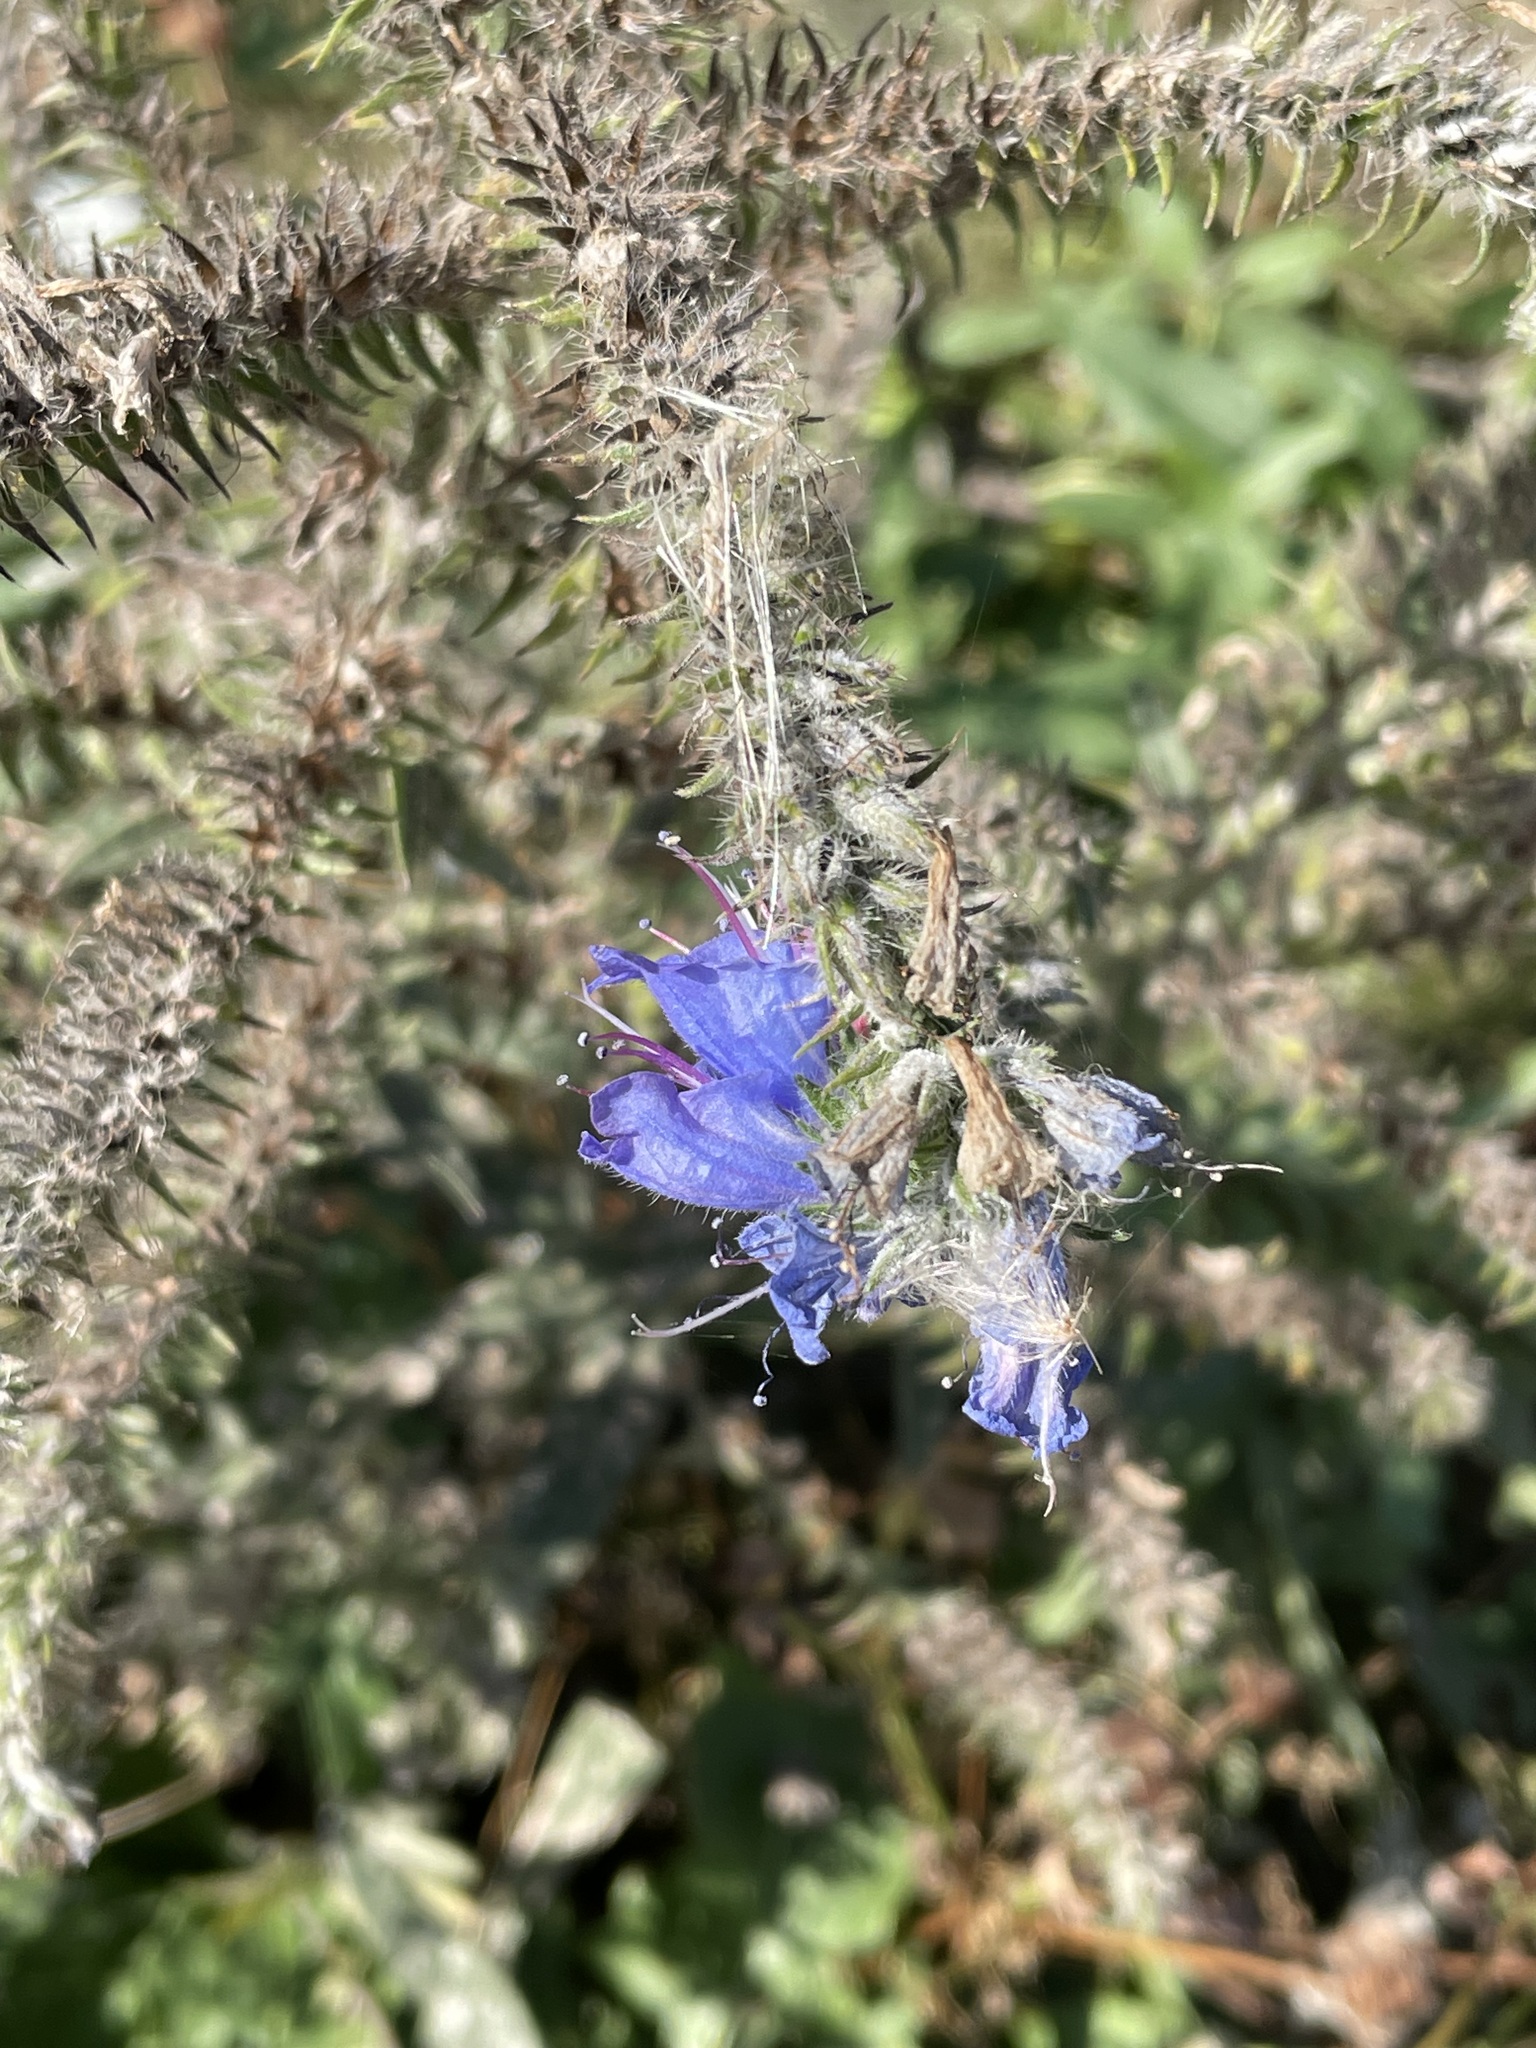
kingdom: Plantae
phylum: Tracheophyta
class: Magnoliopsida
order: Boraginales
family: Boraginaceae
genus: Echium
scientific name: Echium vulgare
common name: Common viper's bugloss
